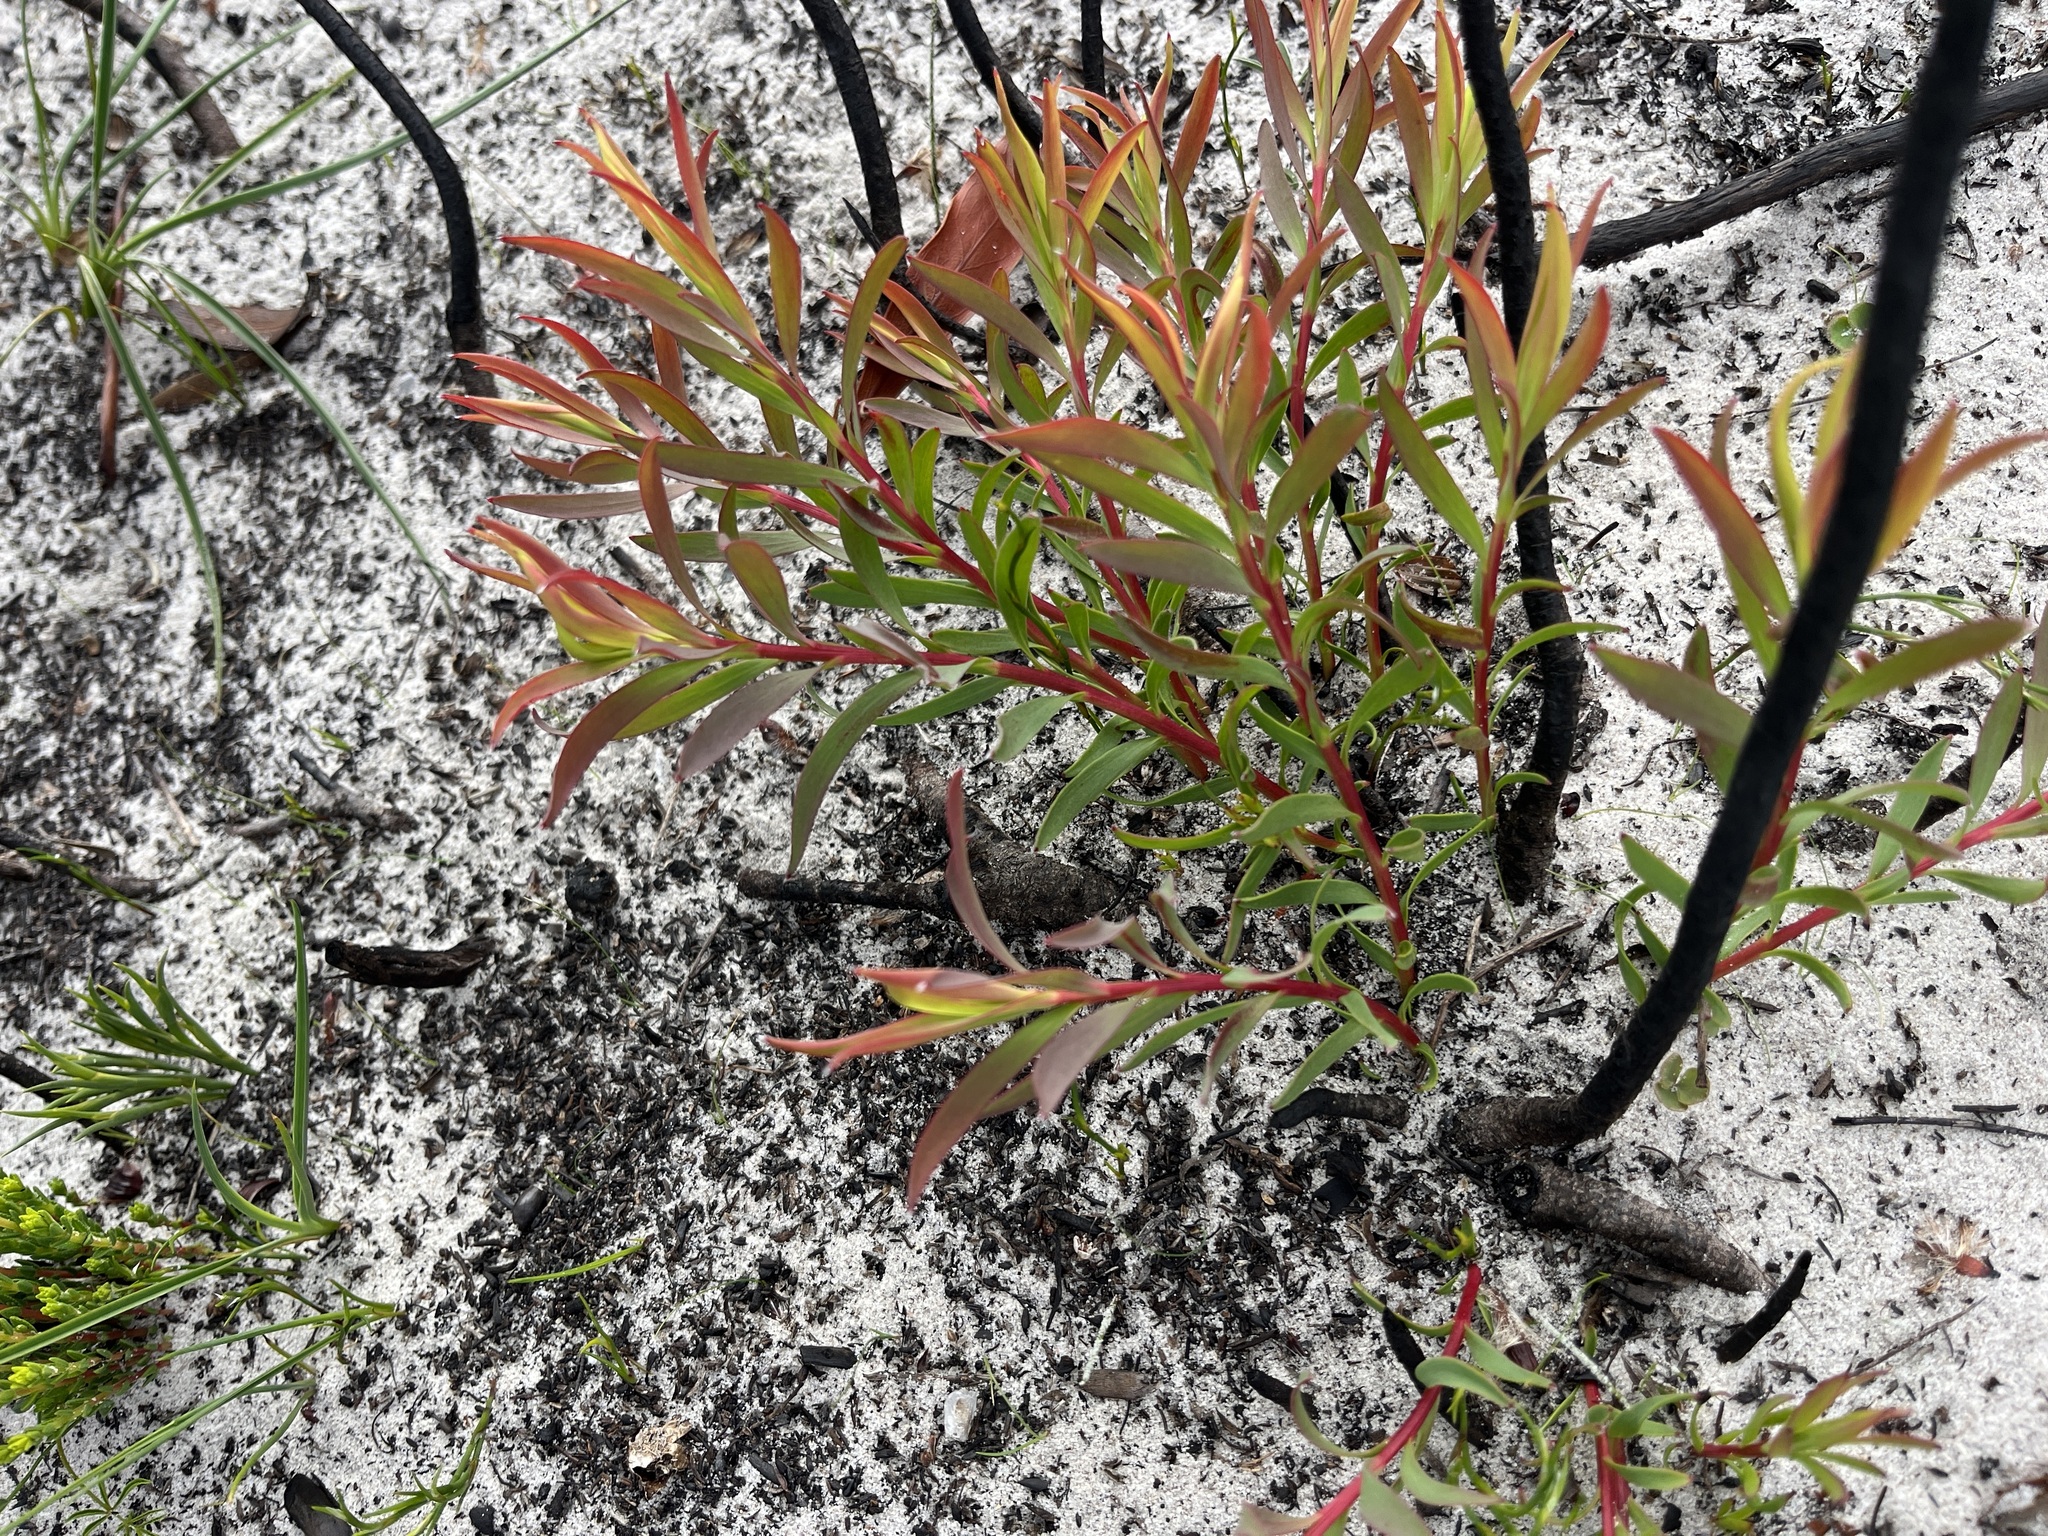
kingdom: Plantae
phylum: Tracheophyta
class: Magnoliopsida
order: Proteales
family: Proteaceae
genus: Leucadendron
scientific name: Leucadendron salignum
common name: Common sunshine conebush
